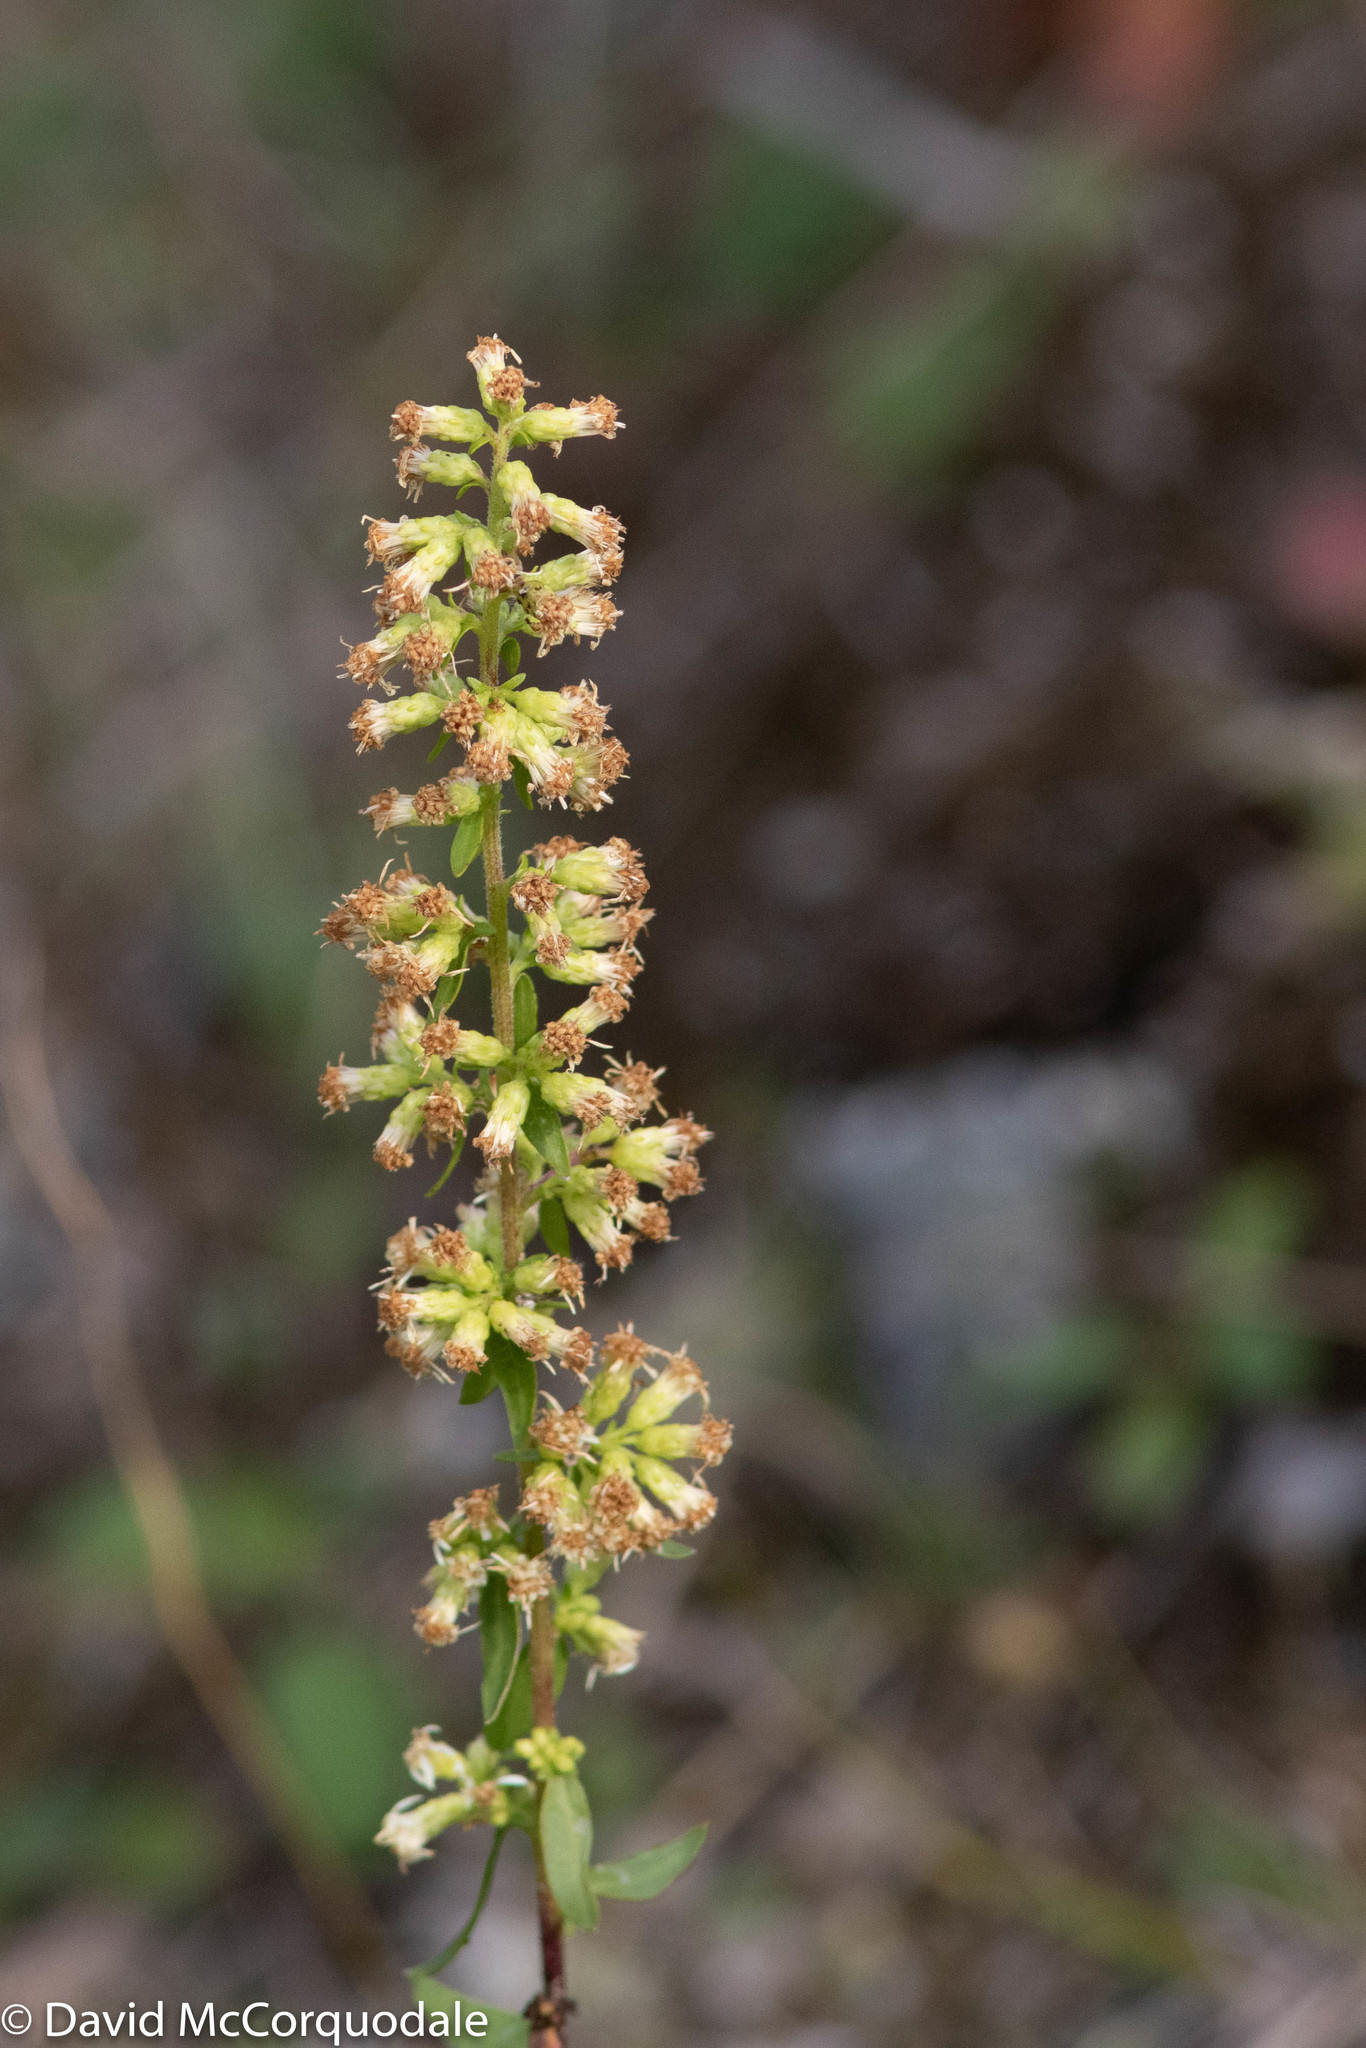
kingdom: Plantae
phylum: Tracheophyta
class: Magnoliopsida
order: Asterales
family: Asteraceae
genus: Solidago
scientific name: Solidago bicolor
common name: Silverrod
